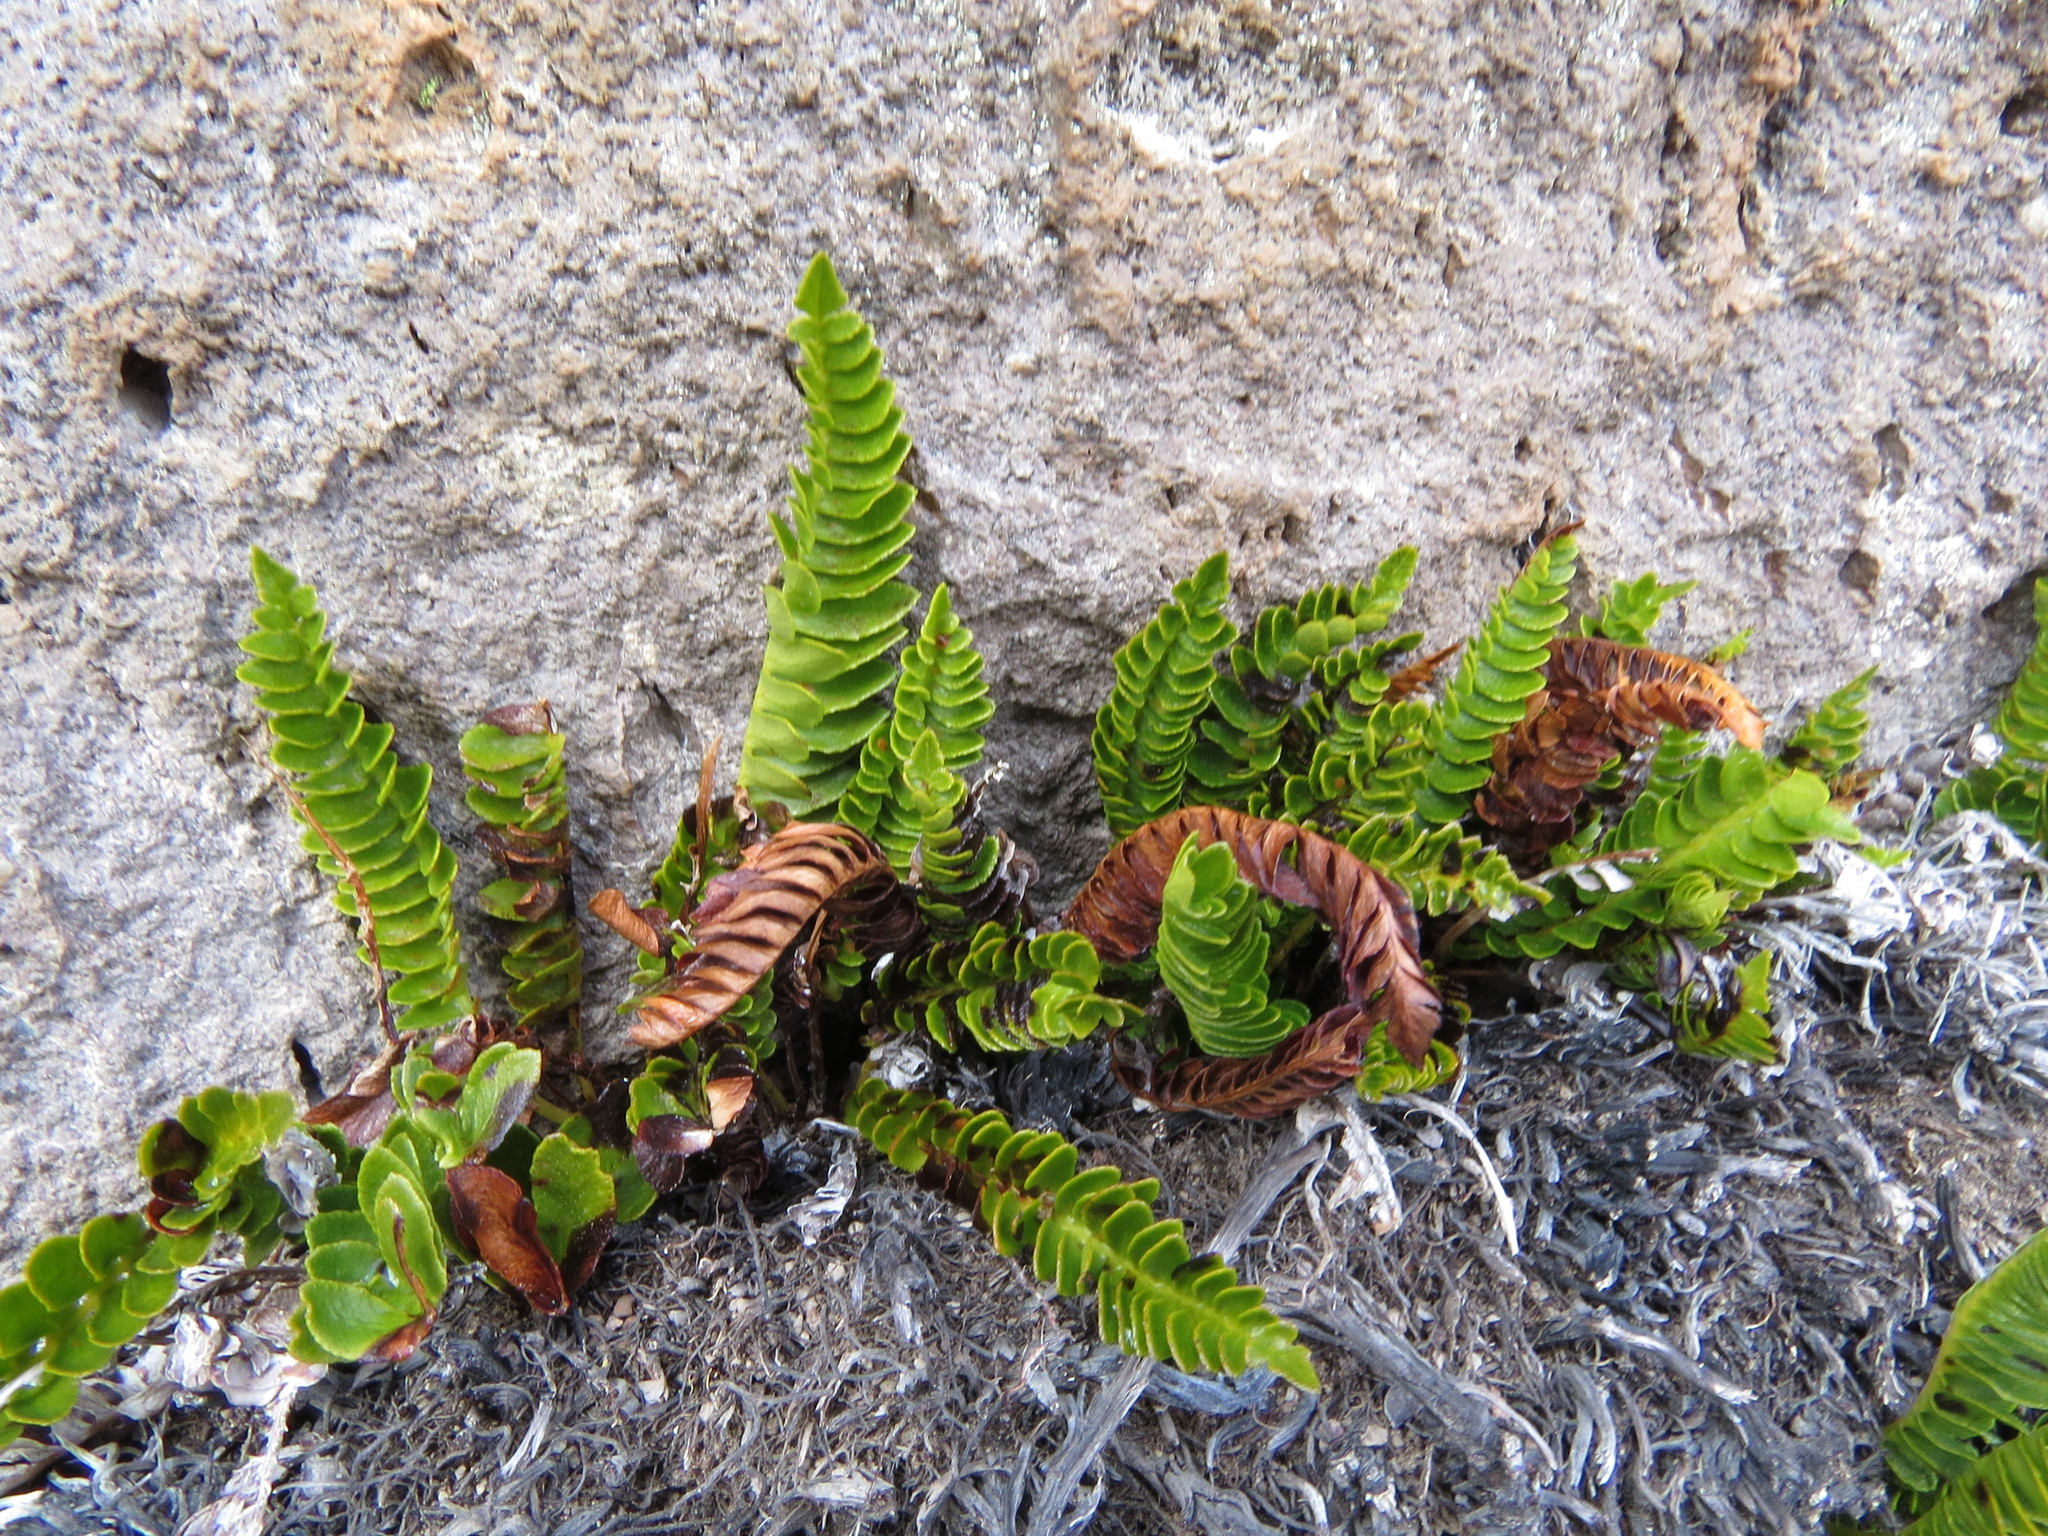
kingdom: Plantae
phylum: Tracheophyta
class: Polypodiopsida
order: Polypodiales
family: Blechnaceae
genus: Austroblechnum
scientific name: Austroblechnum microphyllum
